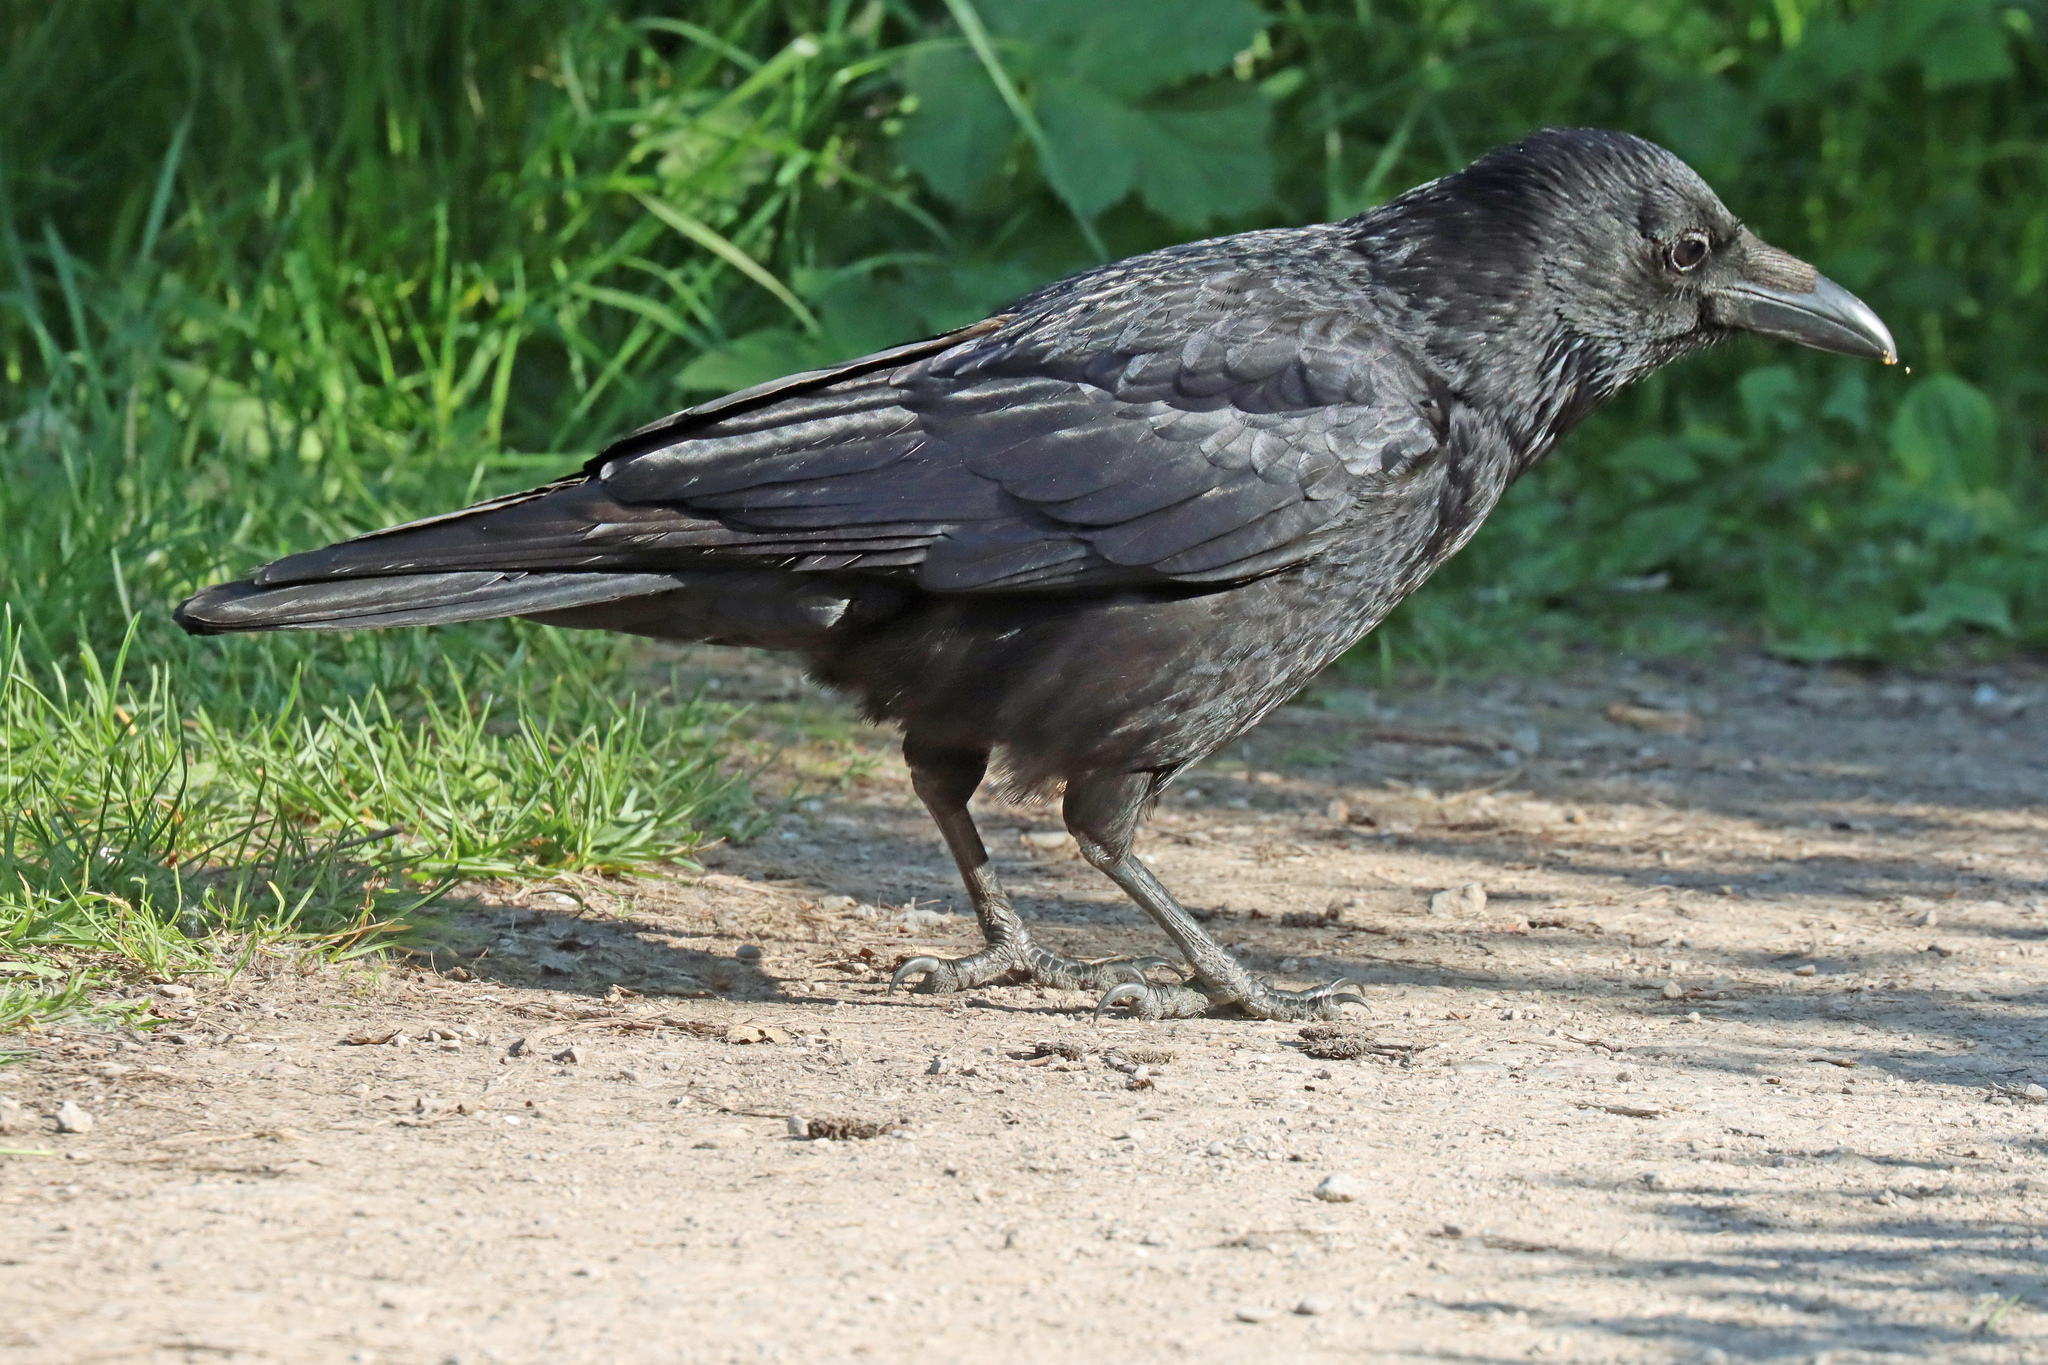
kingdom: Animalia
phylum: Chordata
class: Aves
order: Passeriformes
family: Corvidae
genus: Corvus
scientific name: Corvus corax
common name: Common raven
